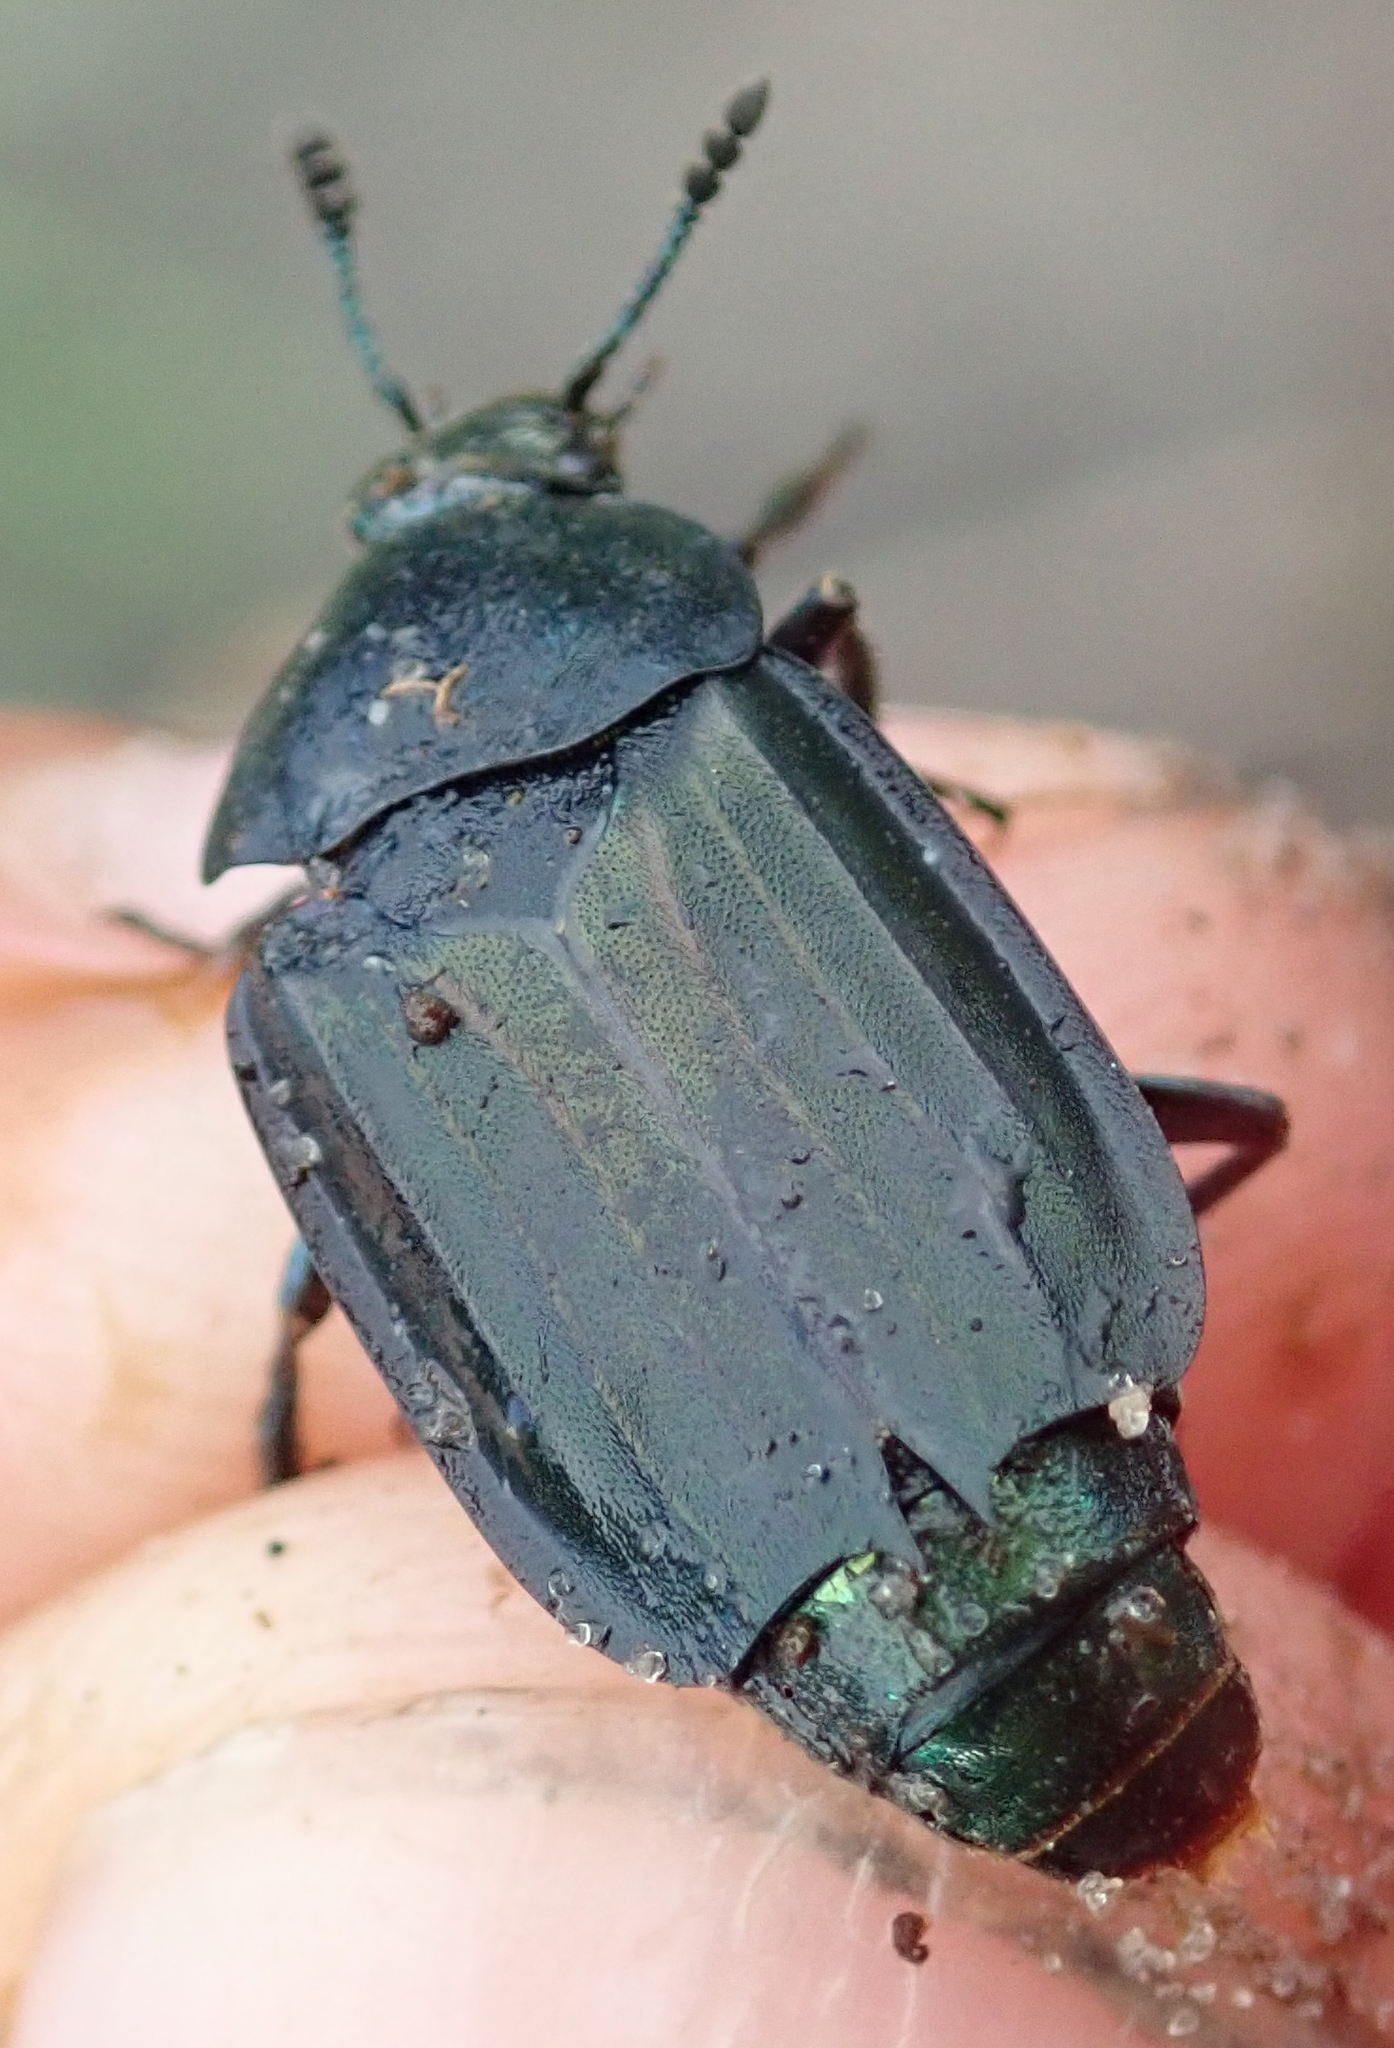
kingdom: Animalia
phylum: Arthropoda
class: Insecta
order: Coleoptera
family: Staphylinidae
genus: Thanatophilus
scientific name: Thanatophilus micans
